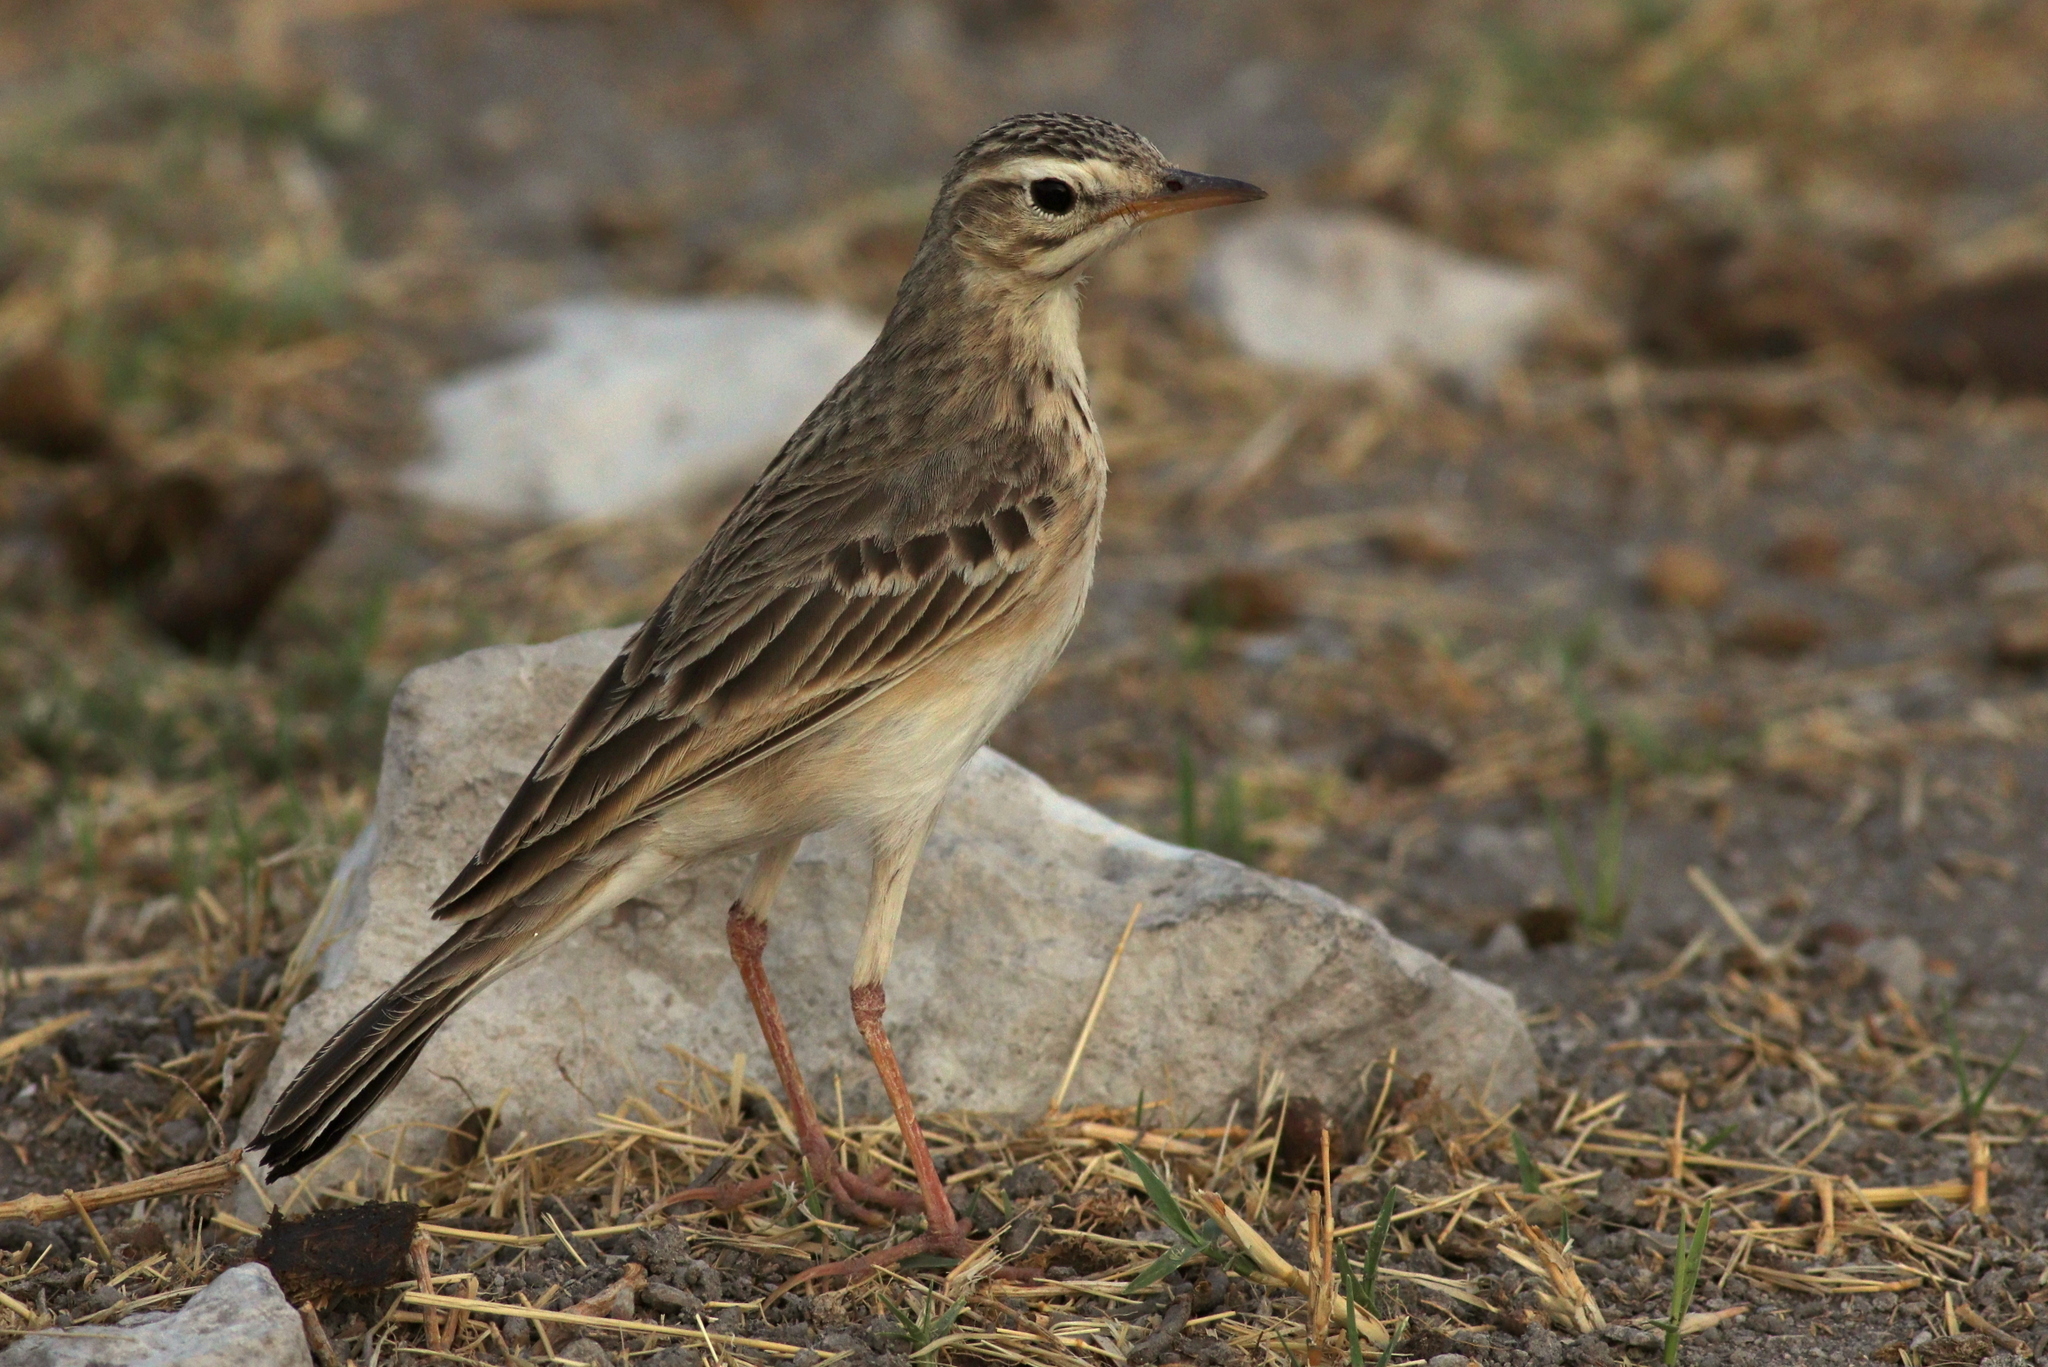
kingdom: Animalia
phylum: Chordata
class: Aves
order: Passeriformes
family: Motacillidae
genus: Anthus
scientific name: Anthus cinnamomeus
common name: African pipit
